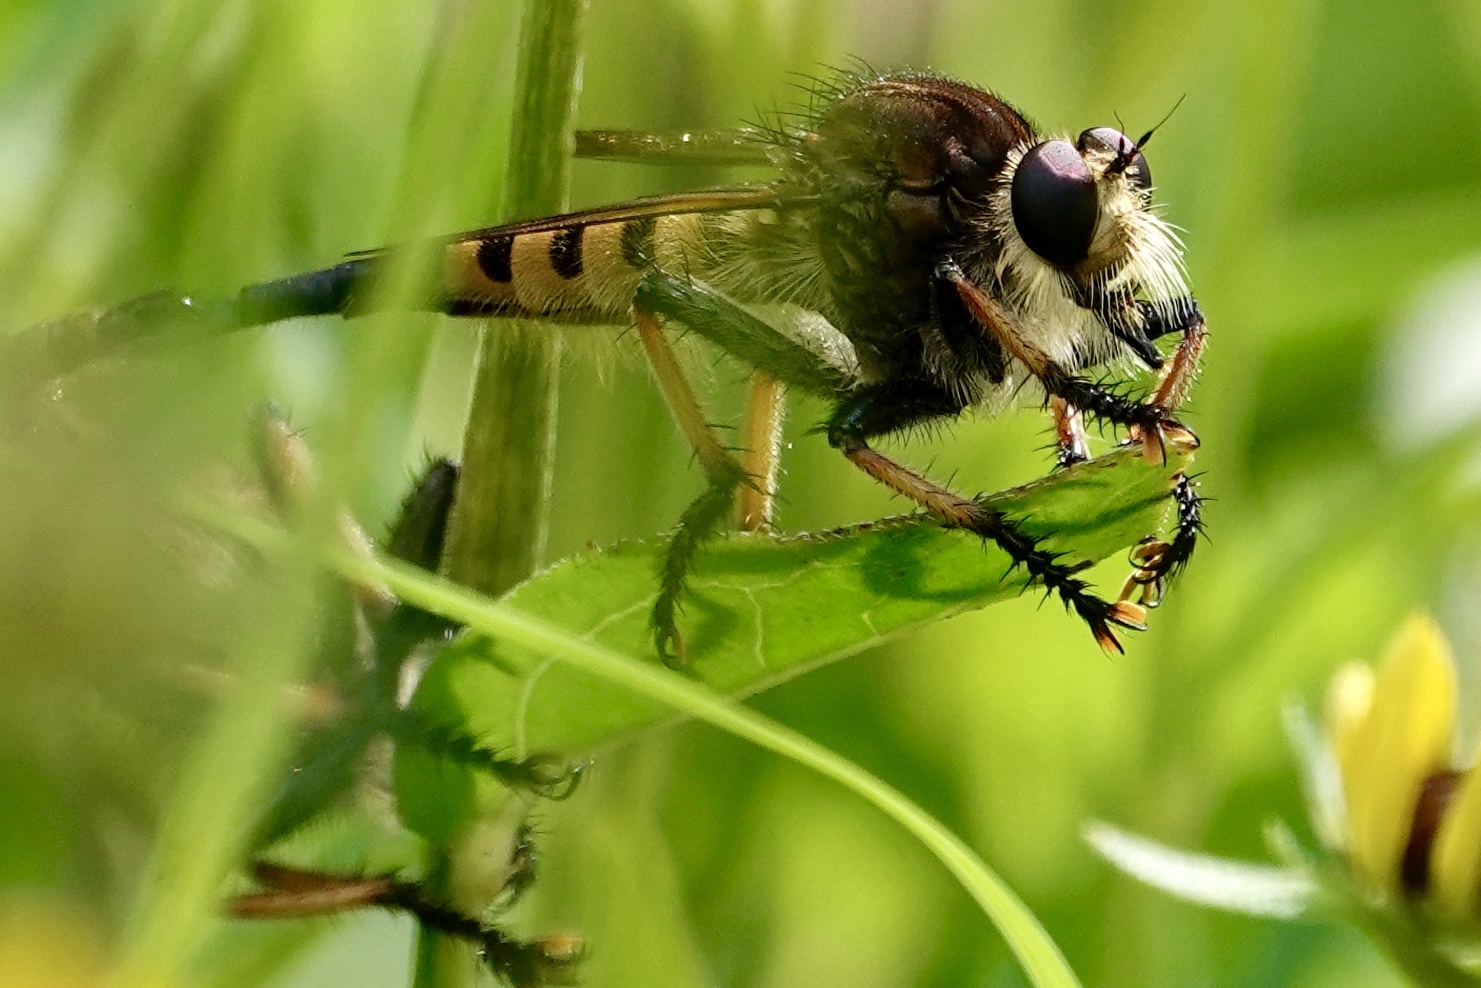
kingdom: Animalia
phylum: Arthropoda
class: Insecta
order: Diptera
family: Asilidae
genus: Promachus
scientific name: Promachus rufipes
